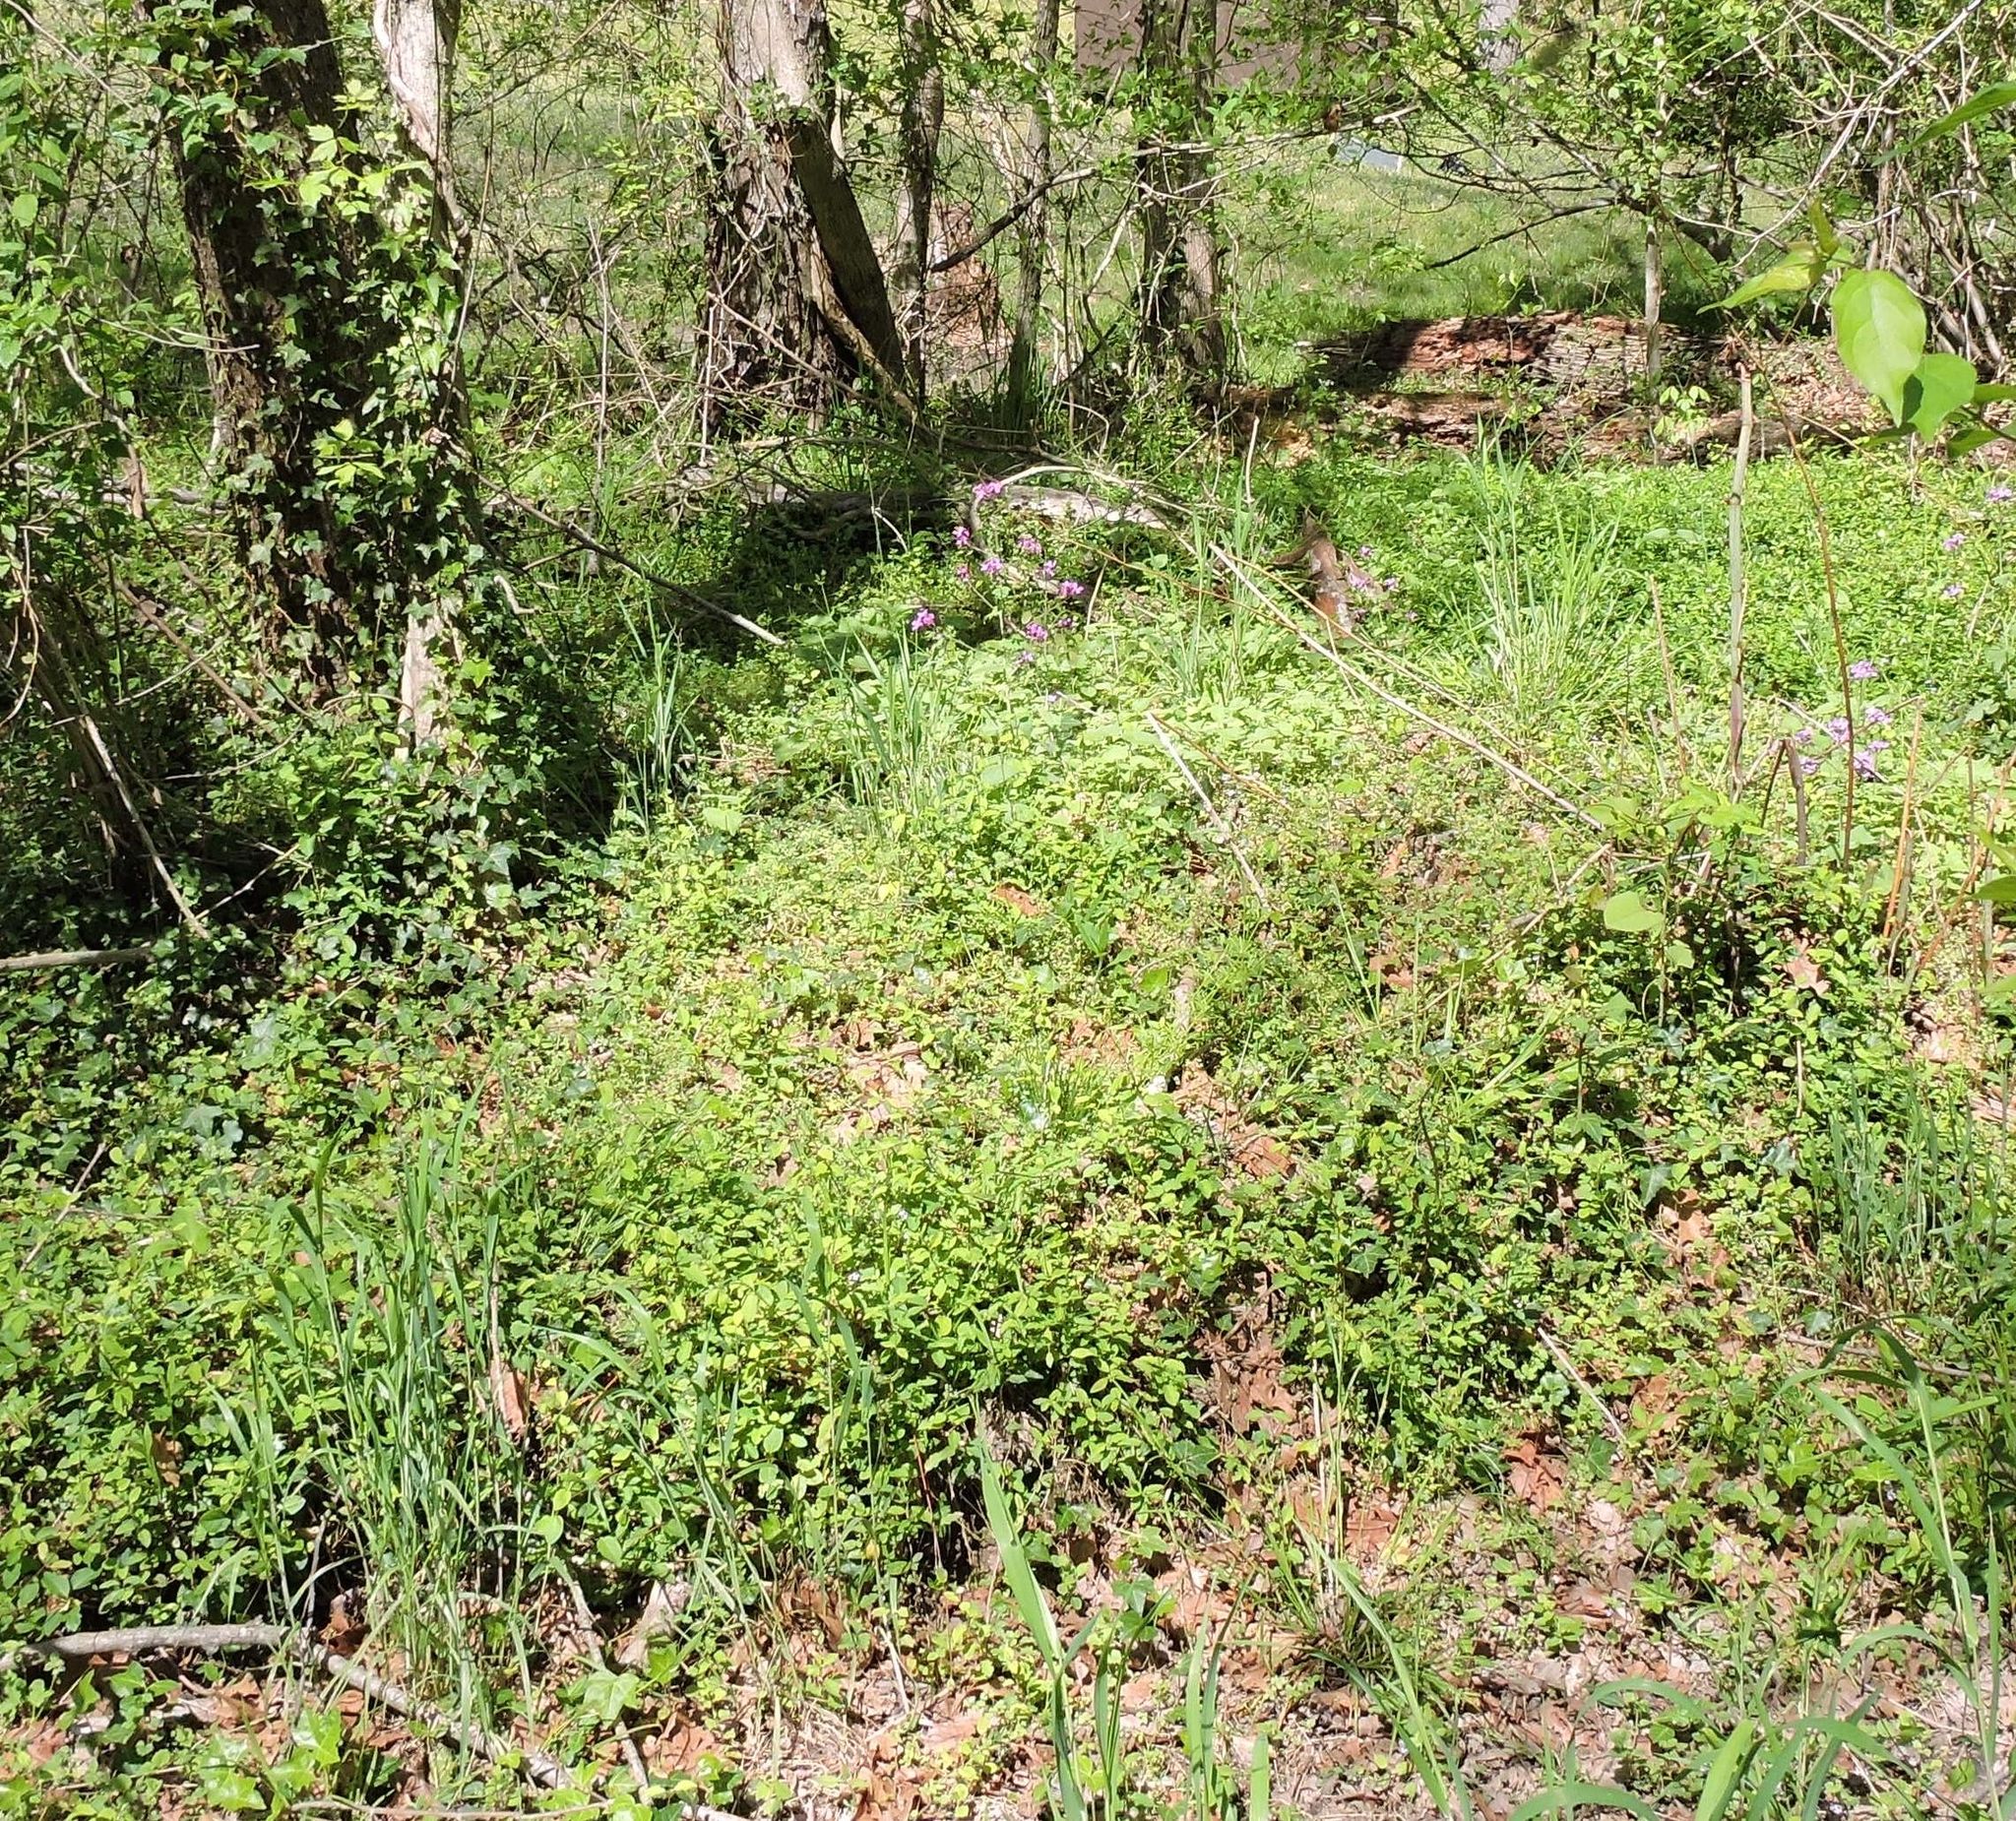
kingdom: Plantae
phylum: Tracheophyta
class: Magnoliopsida
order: Brassicales
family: Brassicaceae
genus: Lunaria
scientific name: Lunaria annua
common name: Honesty
